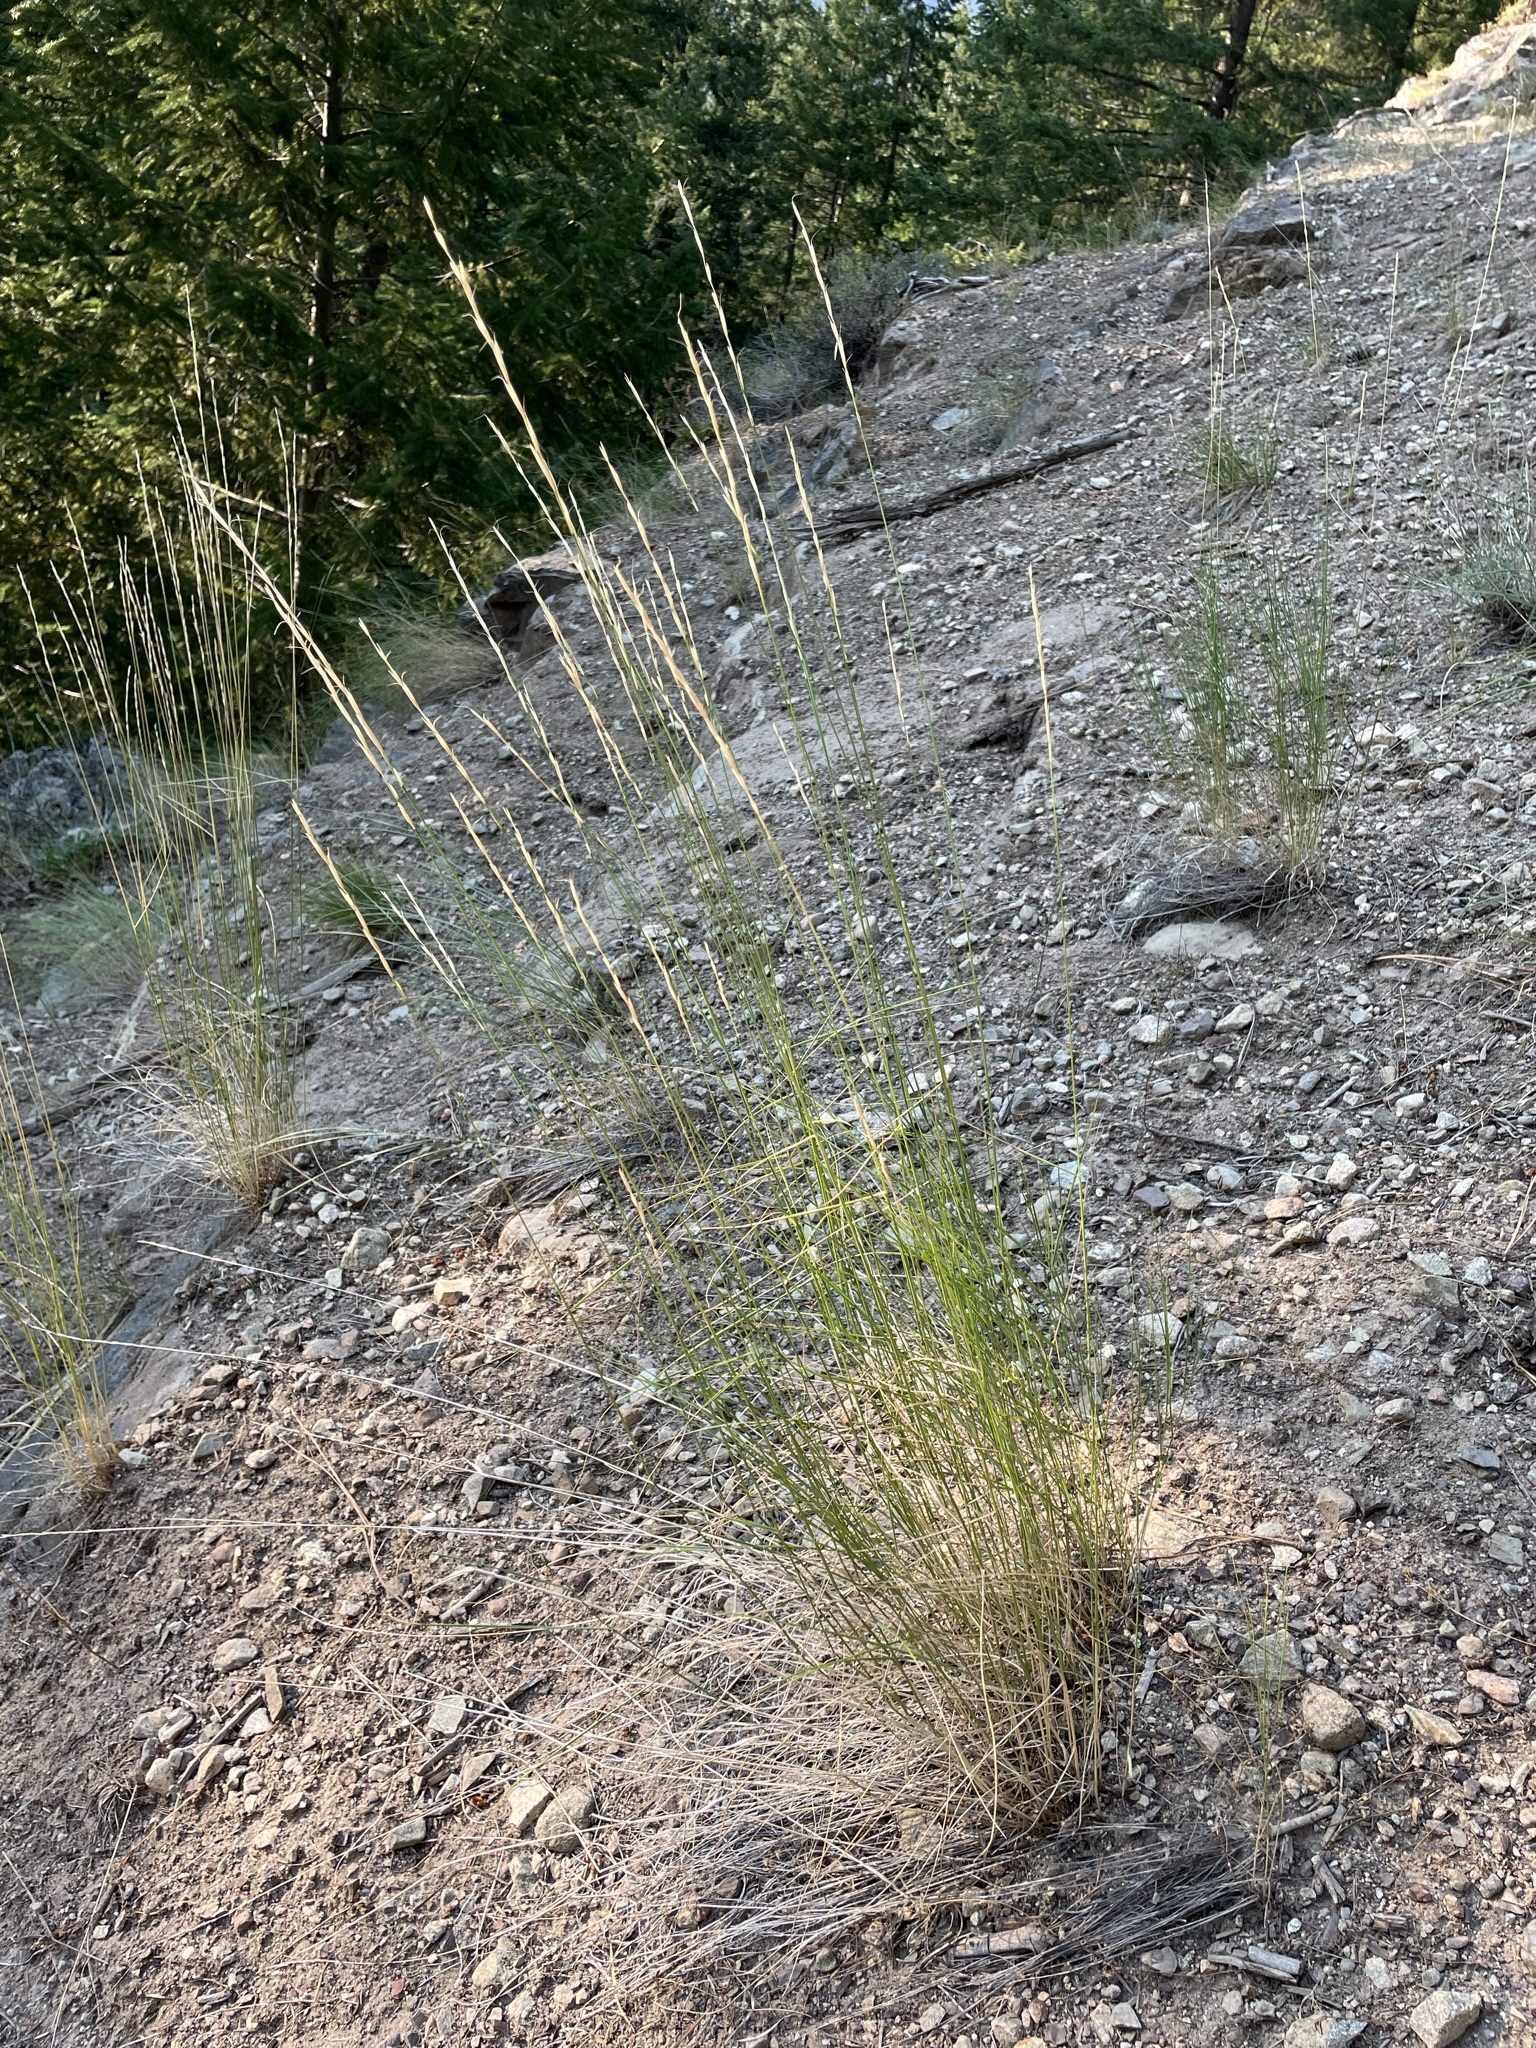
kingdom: Plantae
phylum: Tracheophyta
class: Liliopsida
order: Poales
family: Poaceae
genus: Pseudoroegneria
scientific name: Pseudoroegneria spicata
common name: Bluebunch wheatgrass
